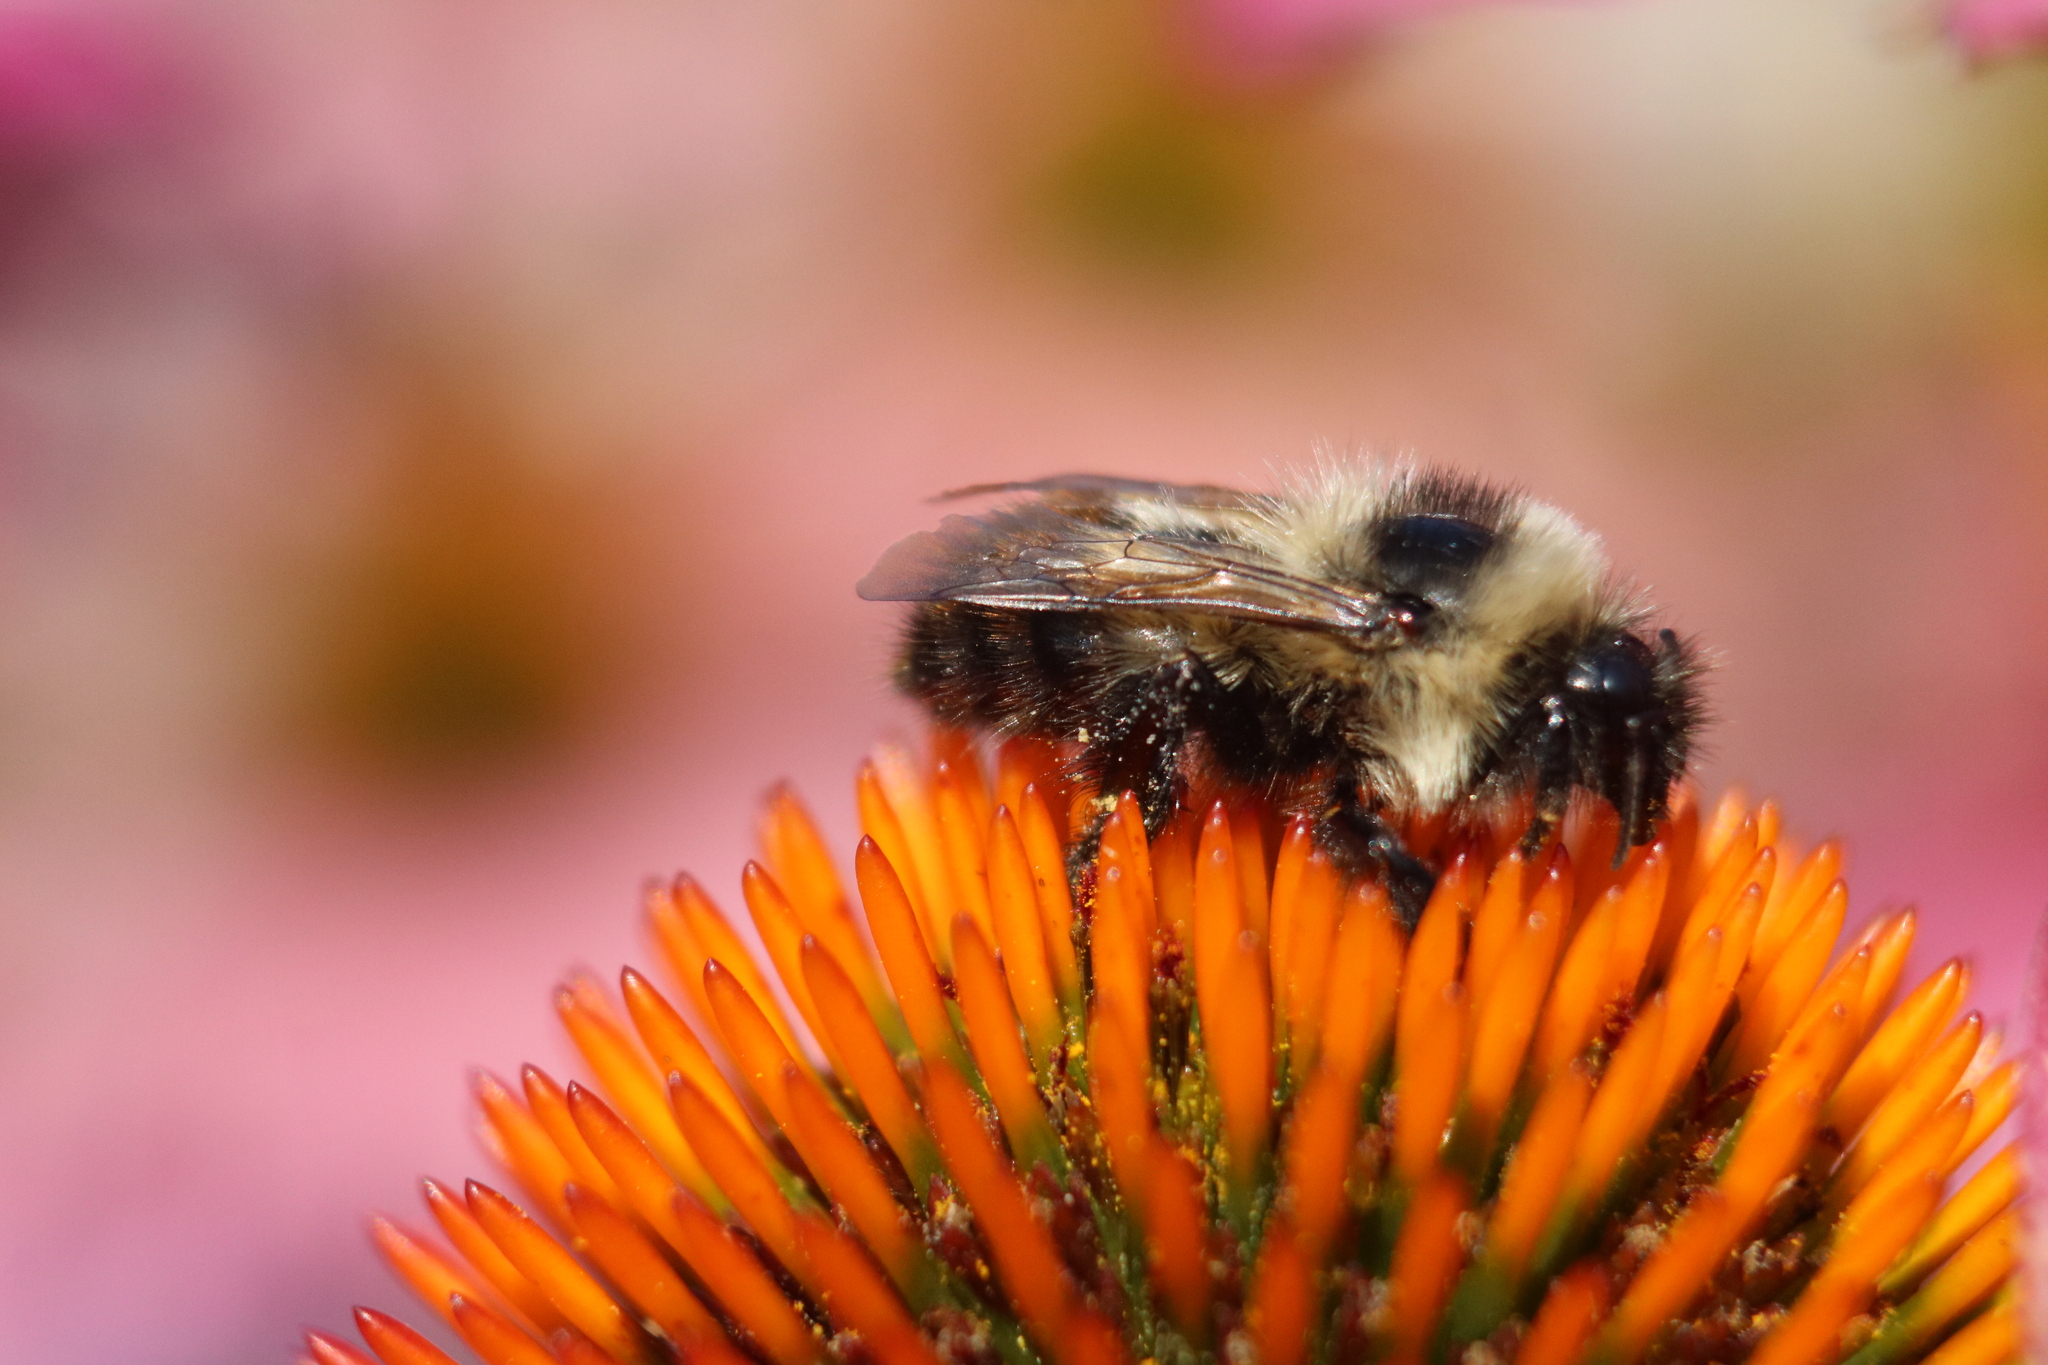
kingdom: Animalia
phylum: Arthropoda
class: Insecta
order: Hymenoptera
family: Apidae
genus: Bombus
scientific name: Bombus rufocinctus
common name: Red-belted bumble bee
